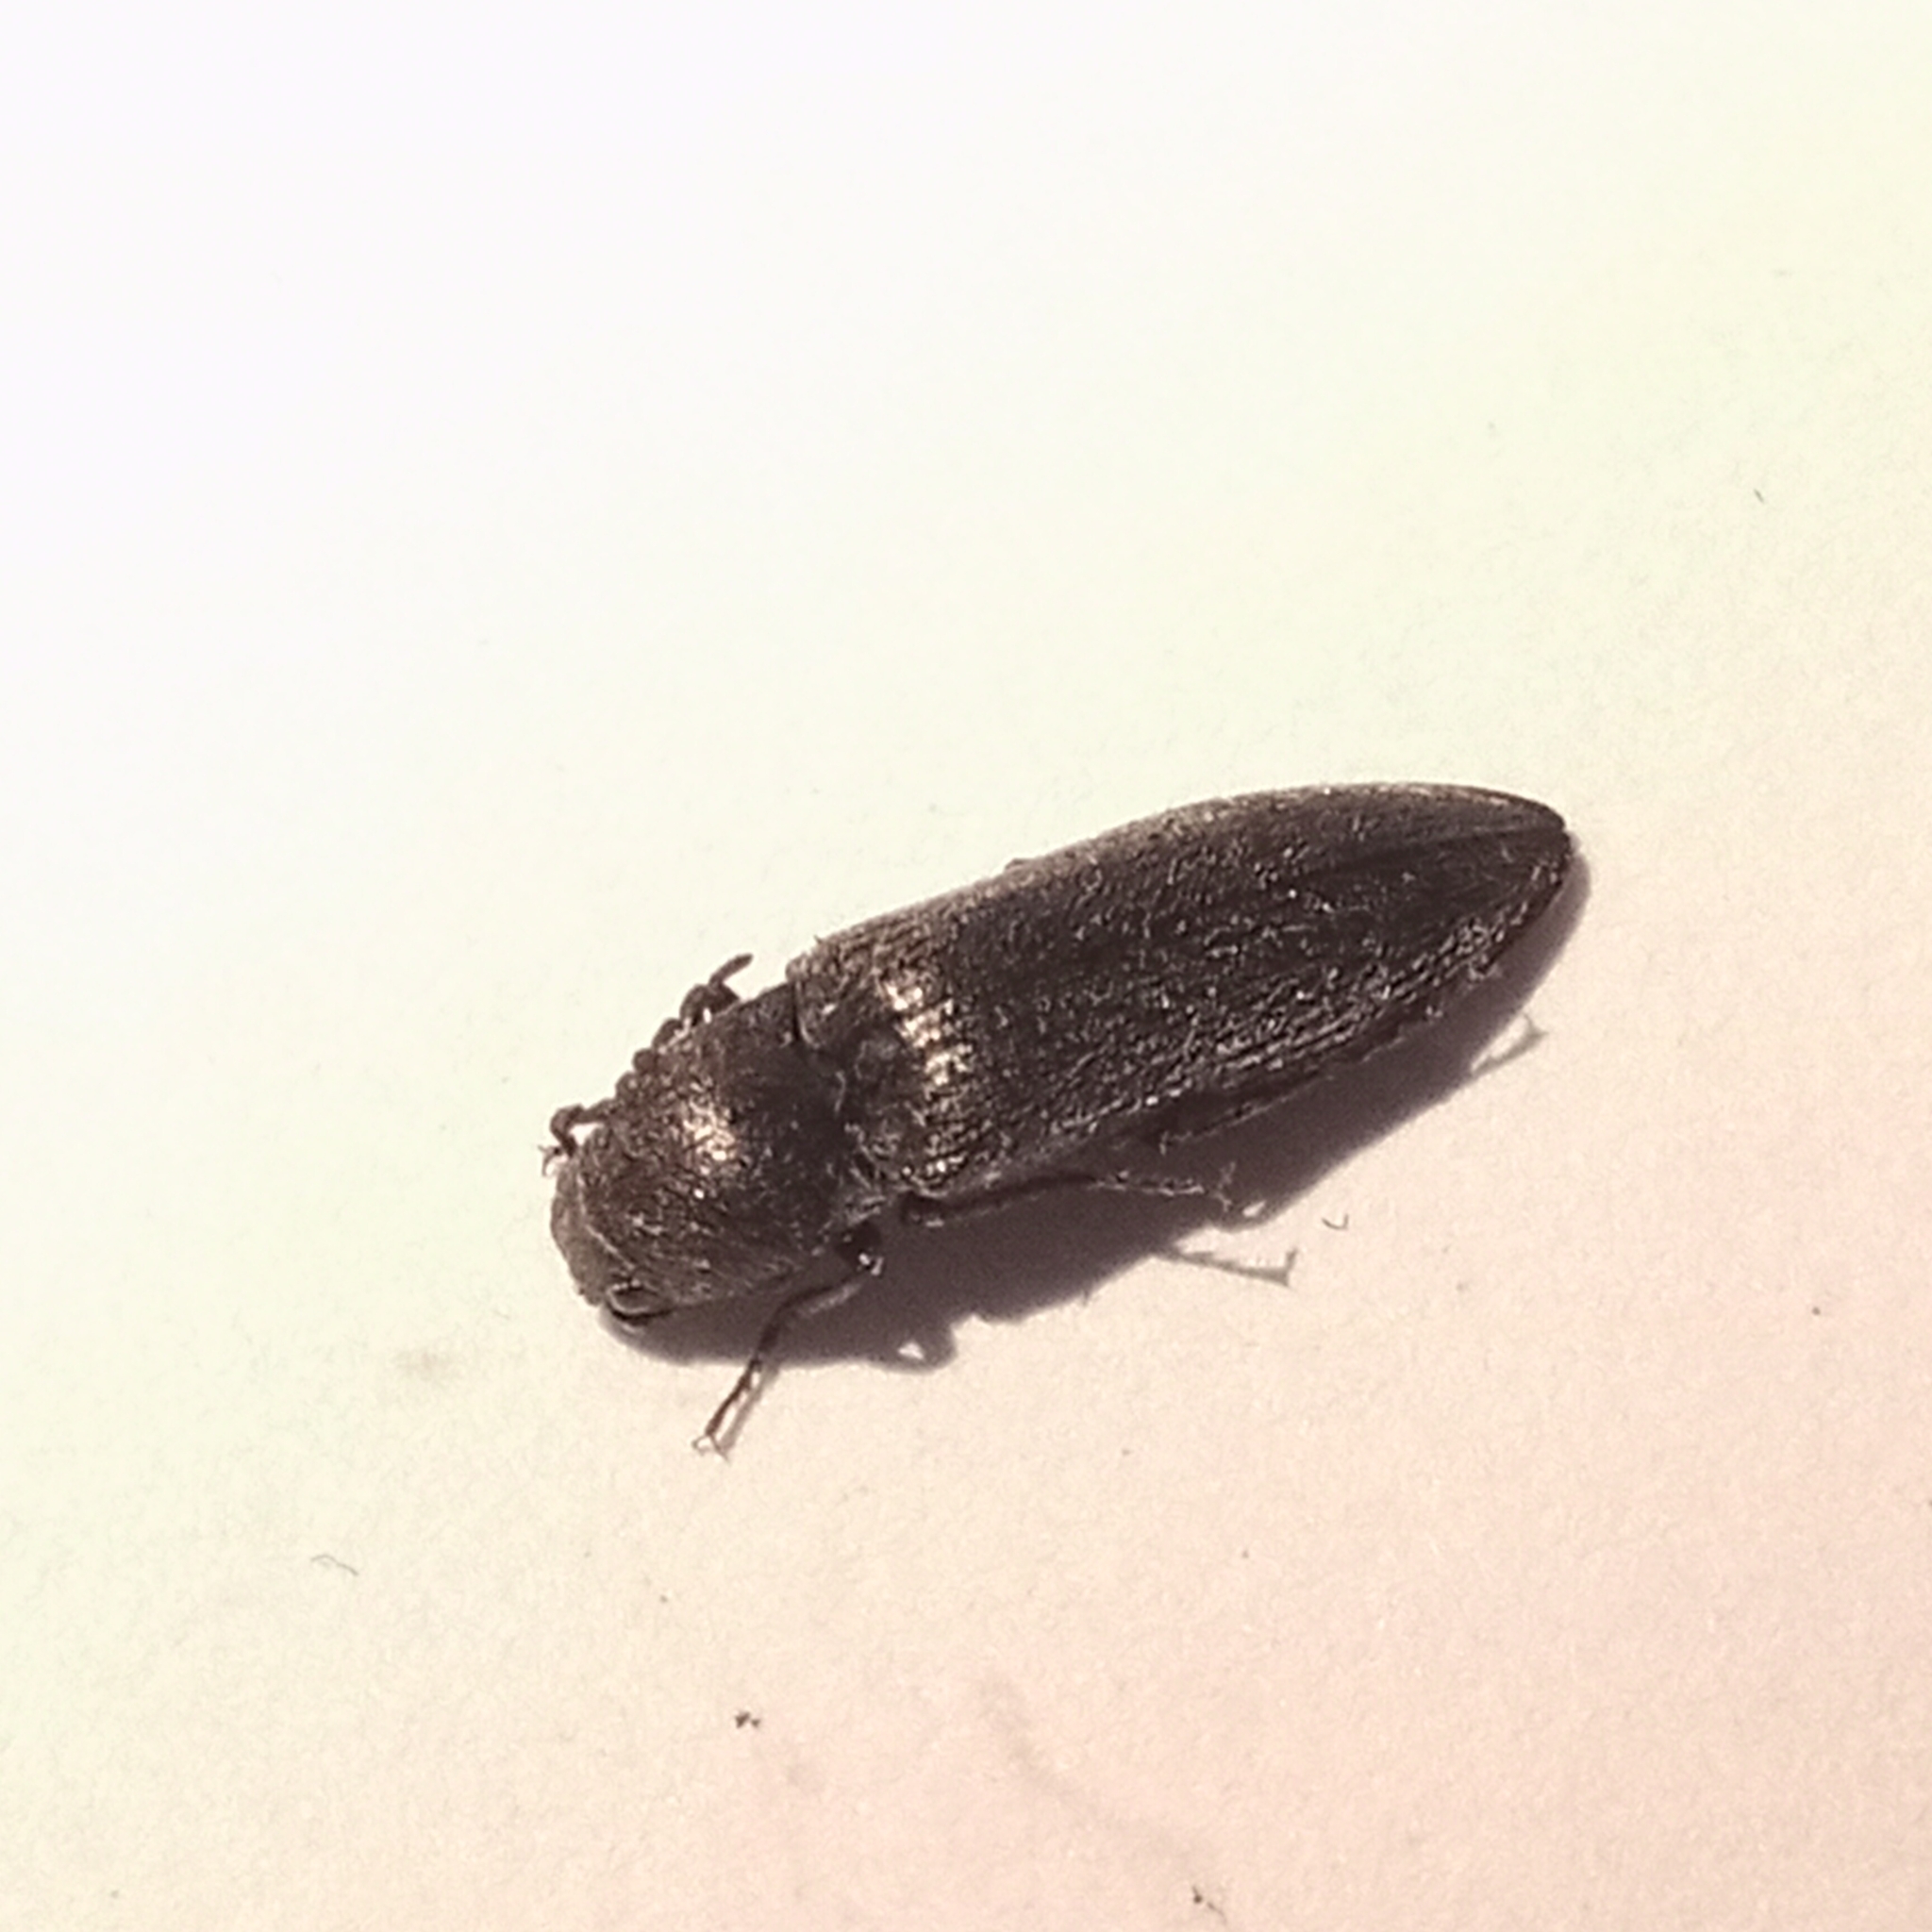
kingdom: Animalia
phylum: Arthropoda
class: Insecta
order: Coleoptera
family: Elateridae
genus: Cidnopus
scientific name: Cidnopus aeruginosus
